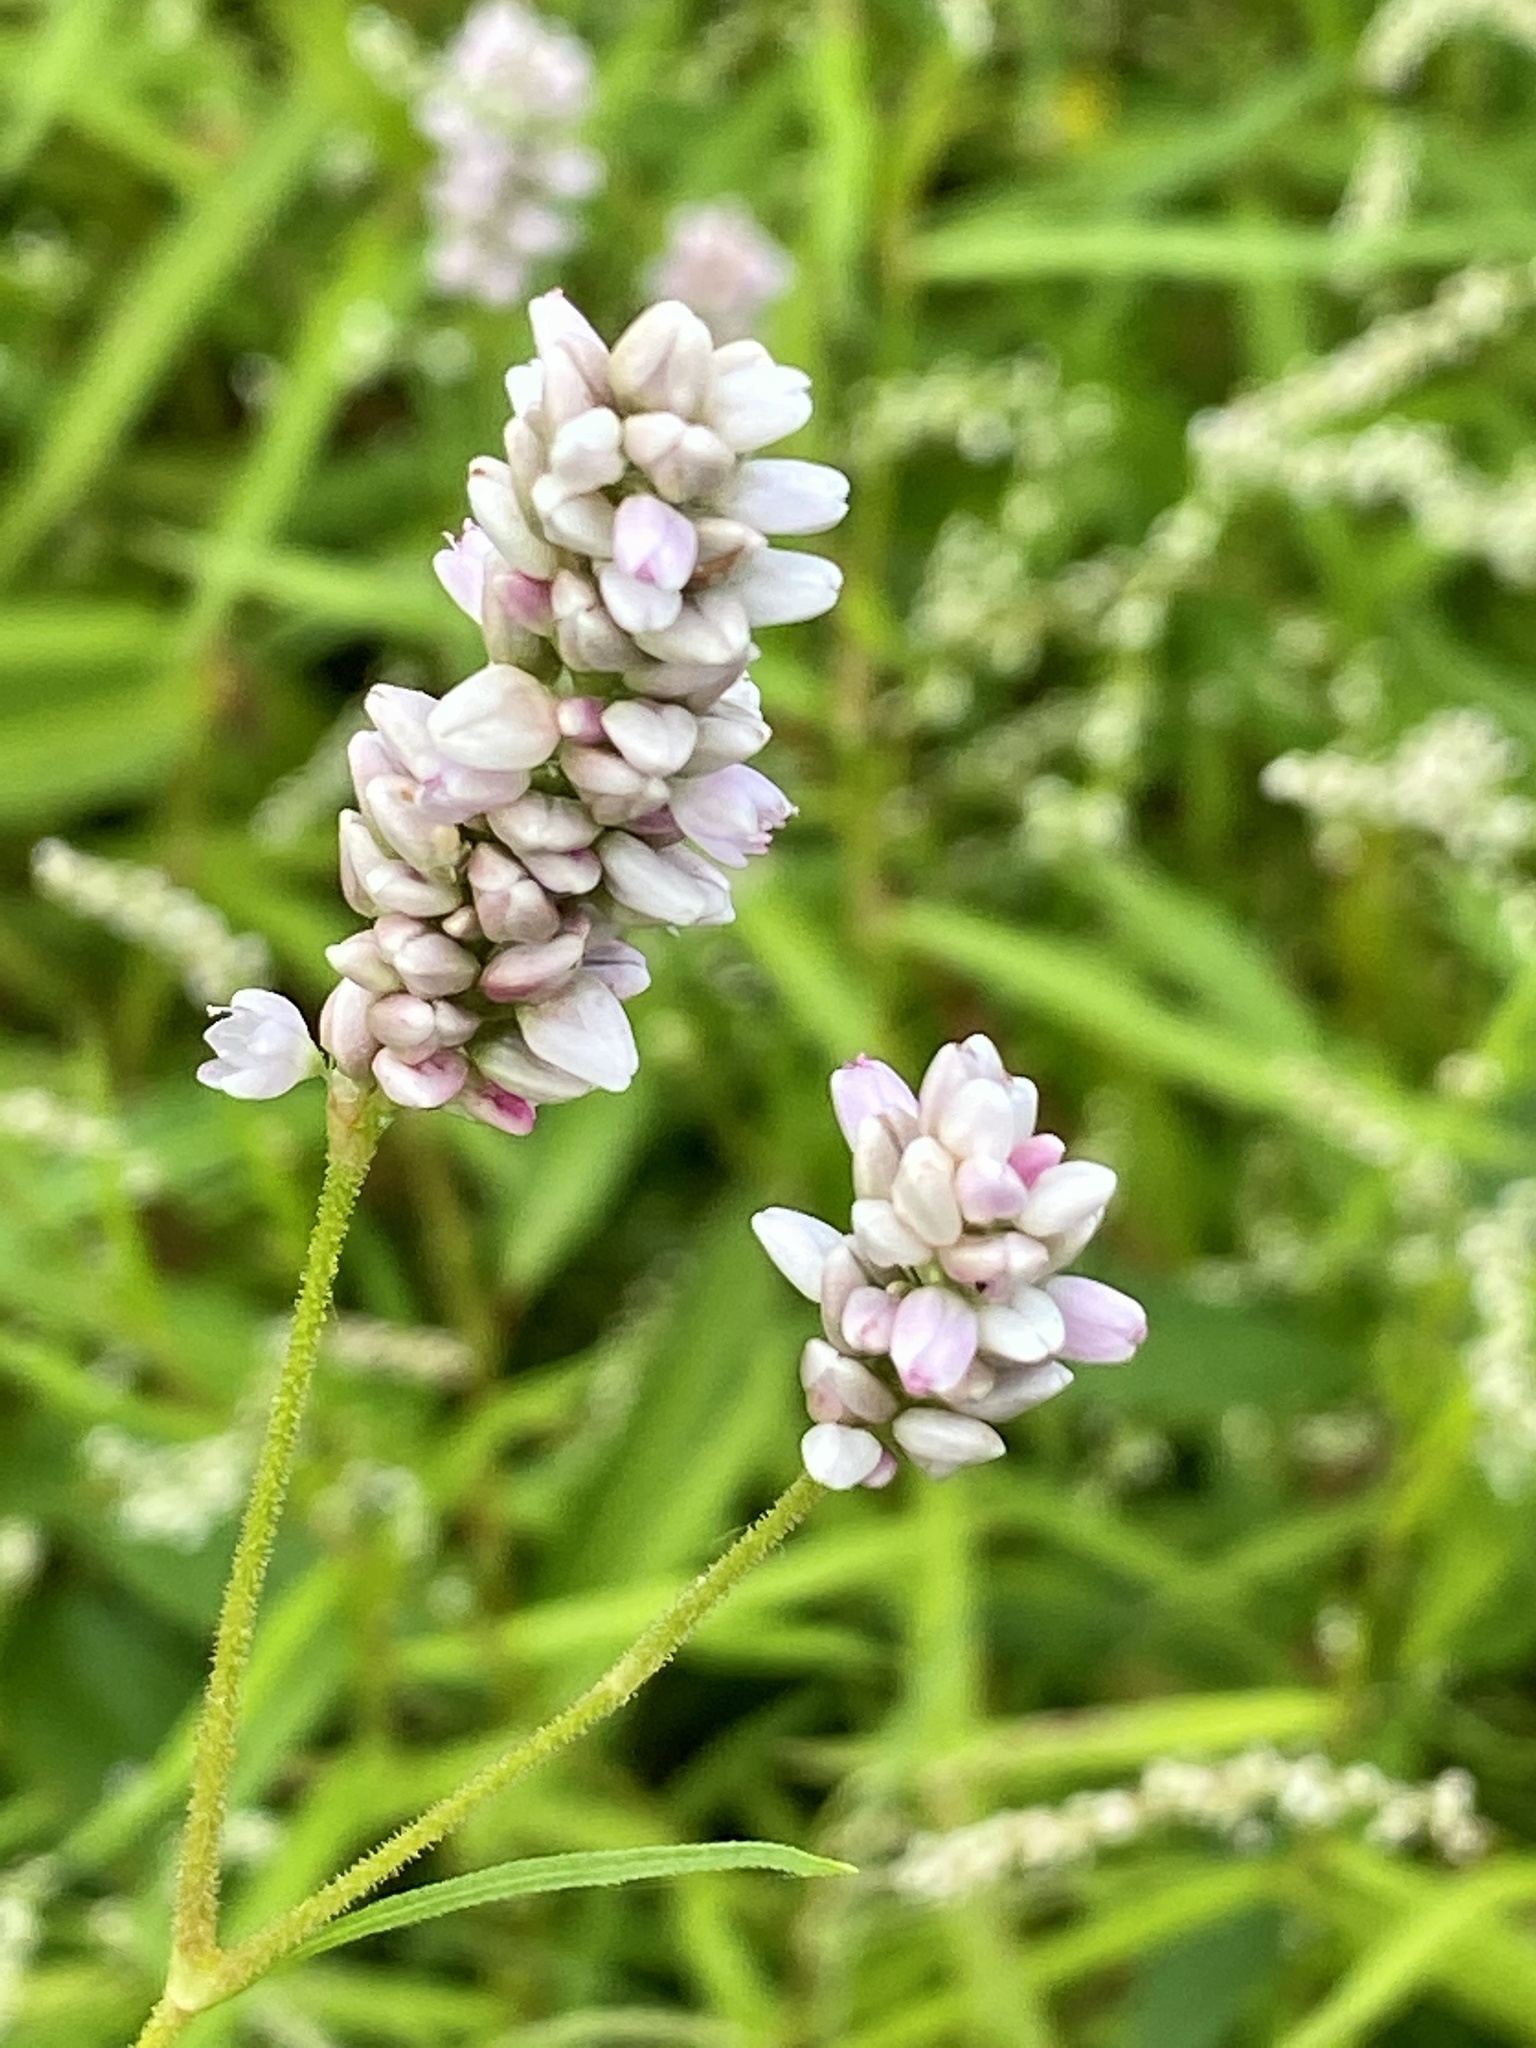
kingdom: Plantae
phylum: Tracheophyta
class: Magnoliopsida
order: Caryophyllales
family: Polygonaceae
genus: Persicaria
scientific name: Persicaria pensylvanica
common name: Pinkweed
